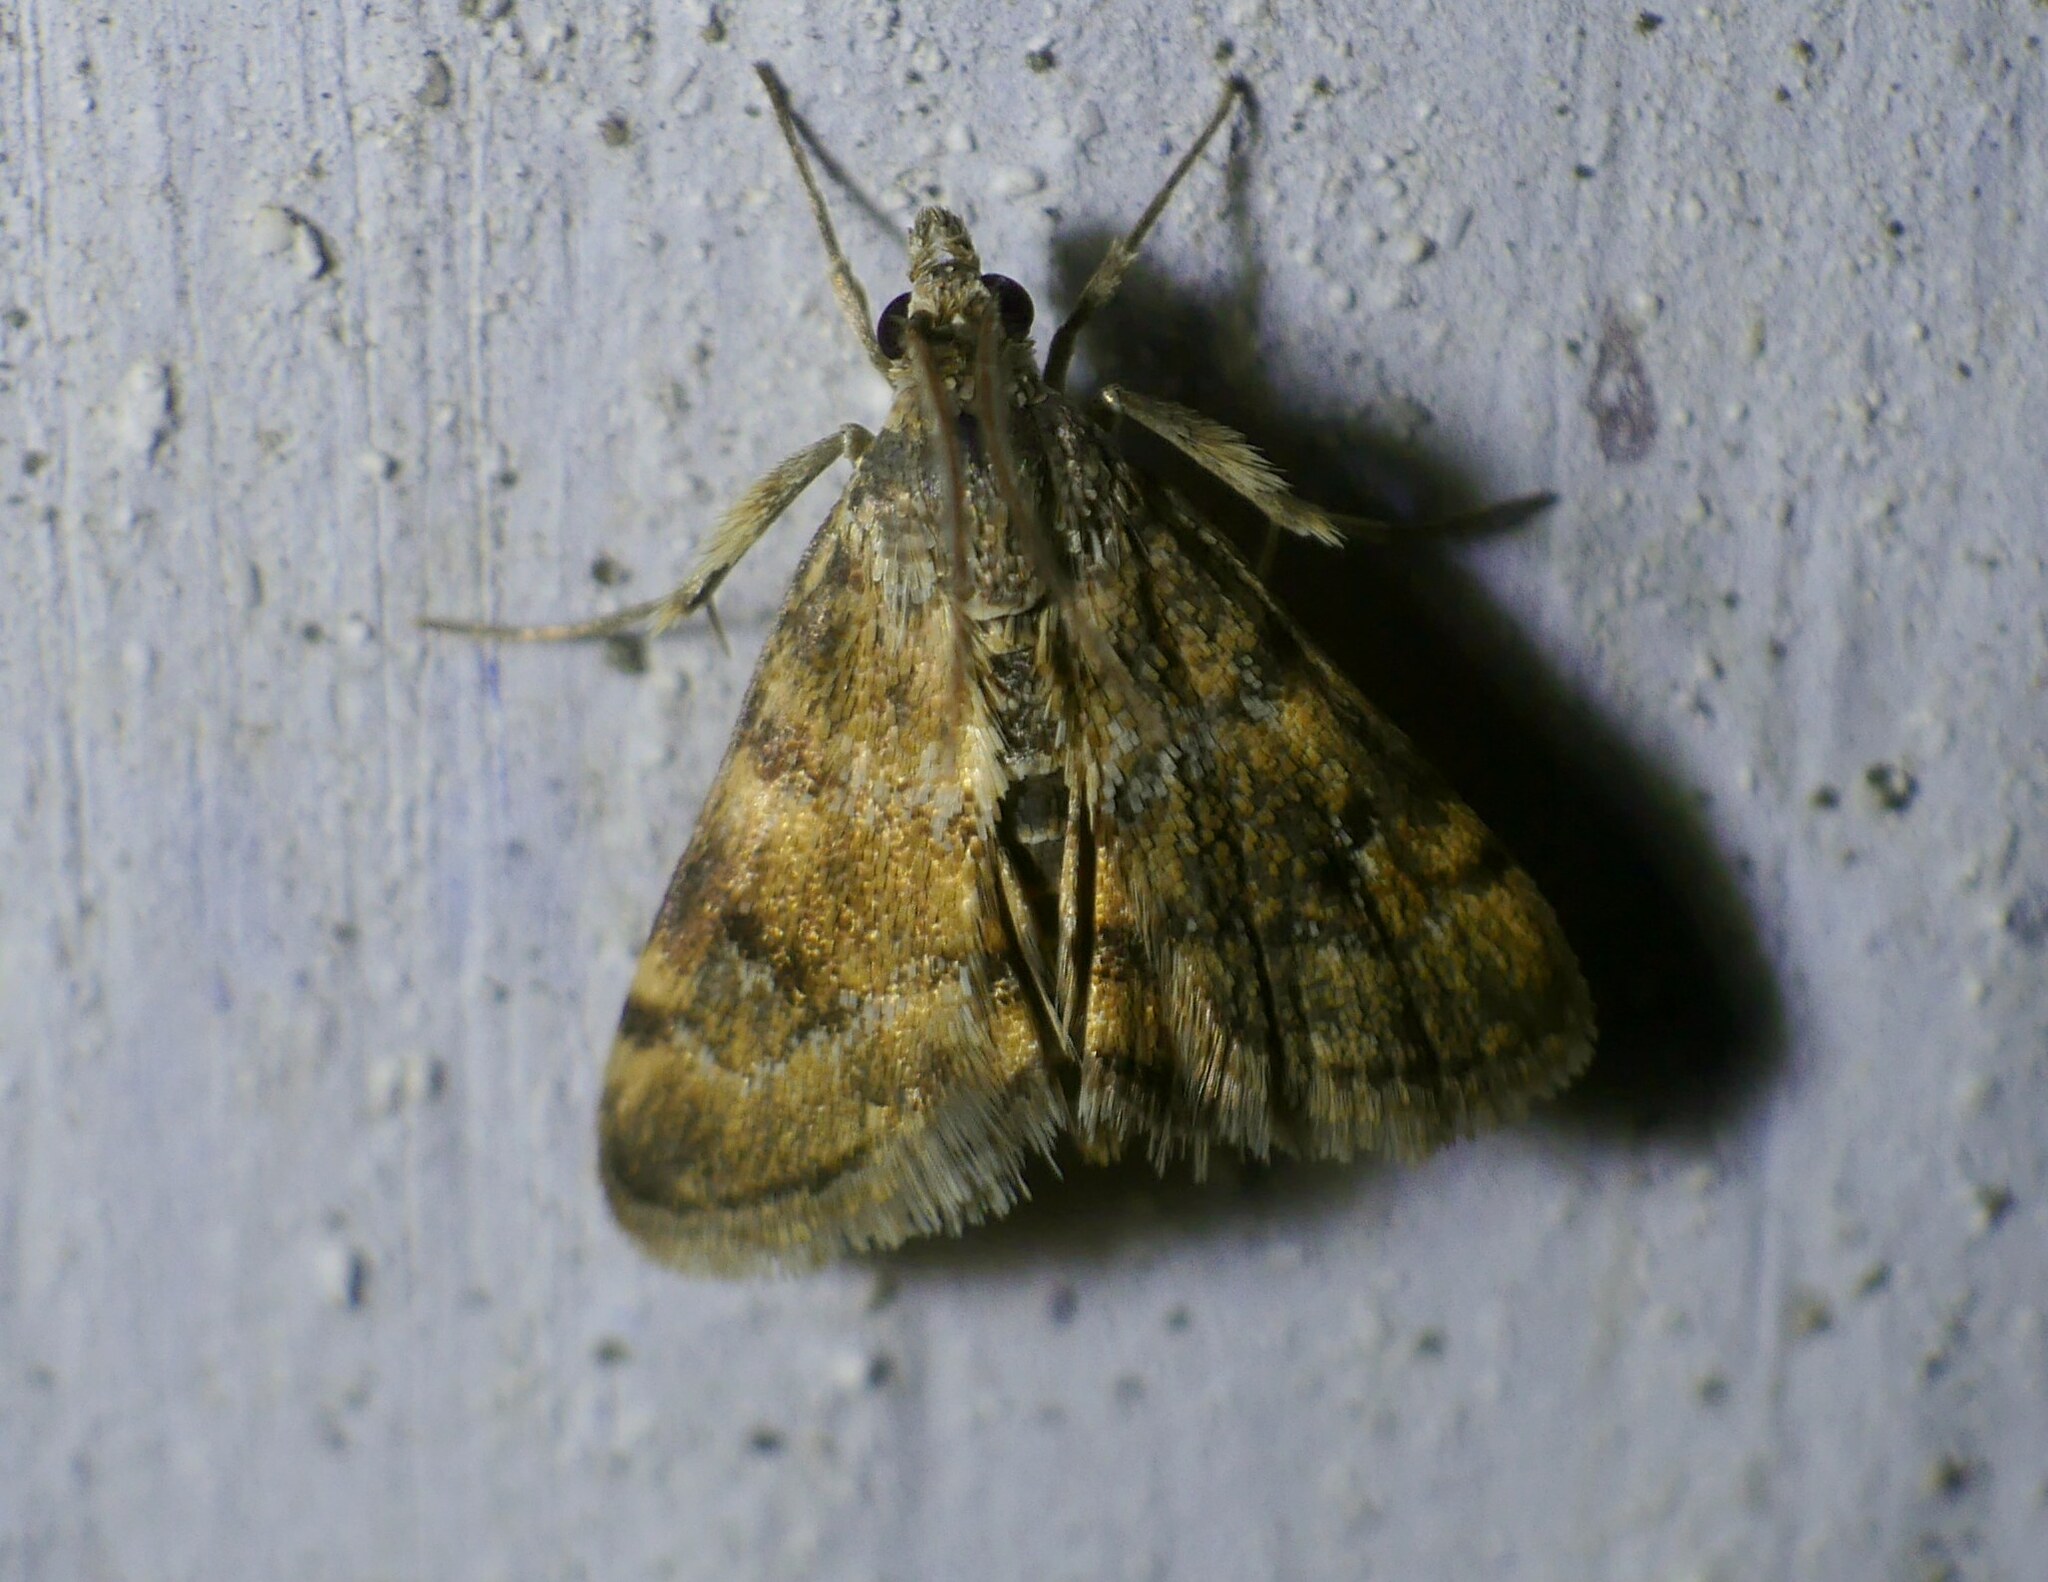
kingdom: Animalia
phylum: Arthropoda
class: Insecta
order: Lepidoptera
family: Crambidae
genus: Noctuelia
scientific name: Noctuelia Aporodes floralis
